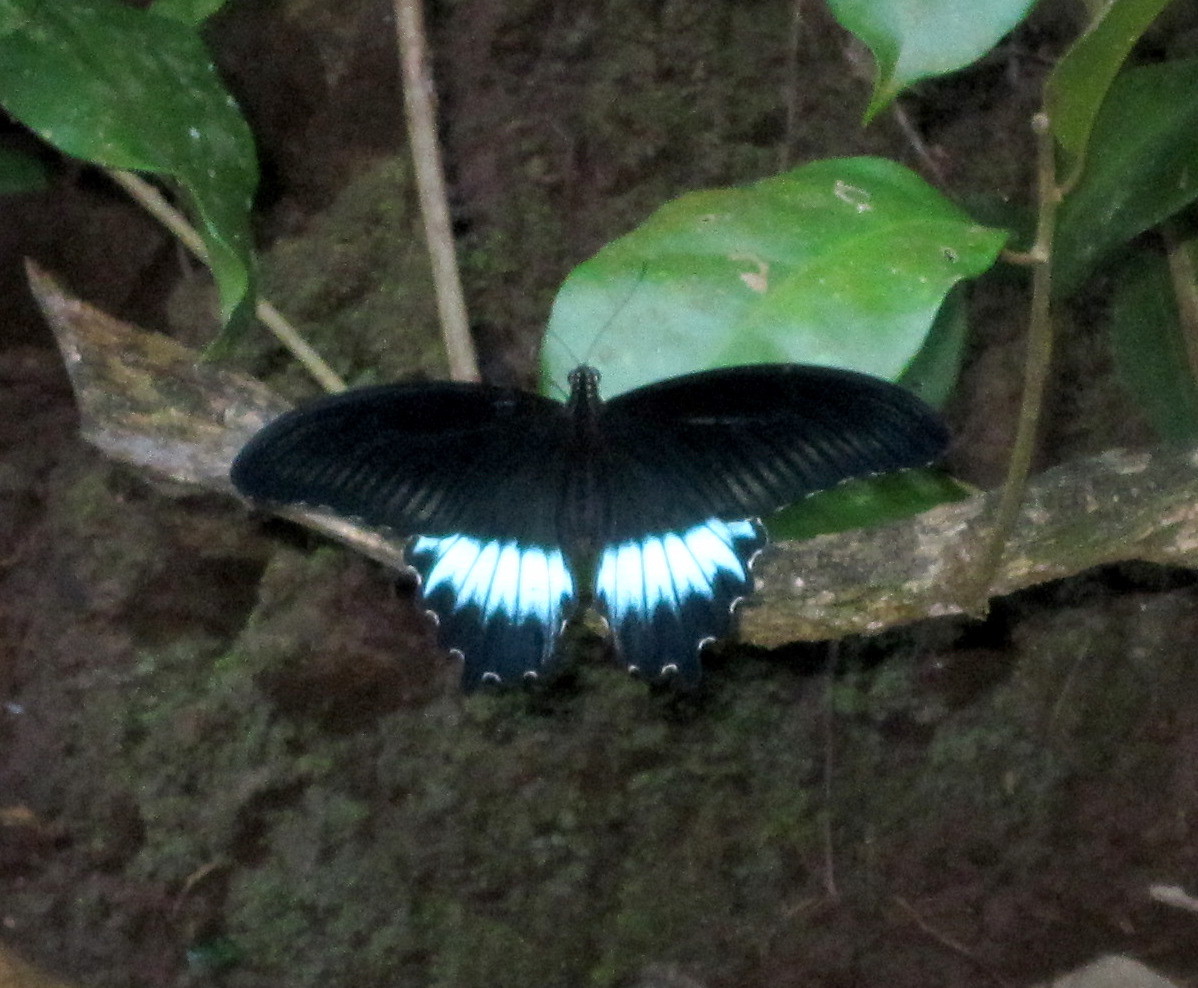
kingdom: Animalia
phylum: Arthropoda
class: Insecta
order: Lepidoptera
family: Papilionidae
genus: Papilio
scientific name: Papilio memnon
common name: Great mormon
